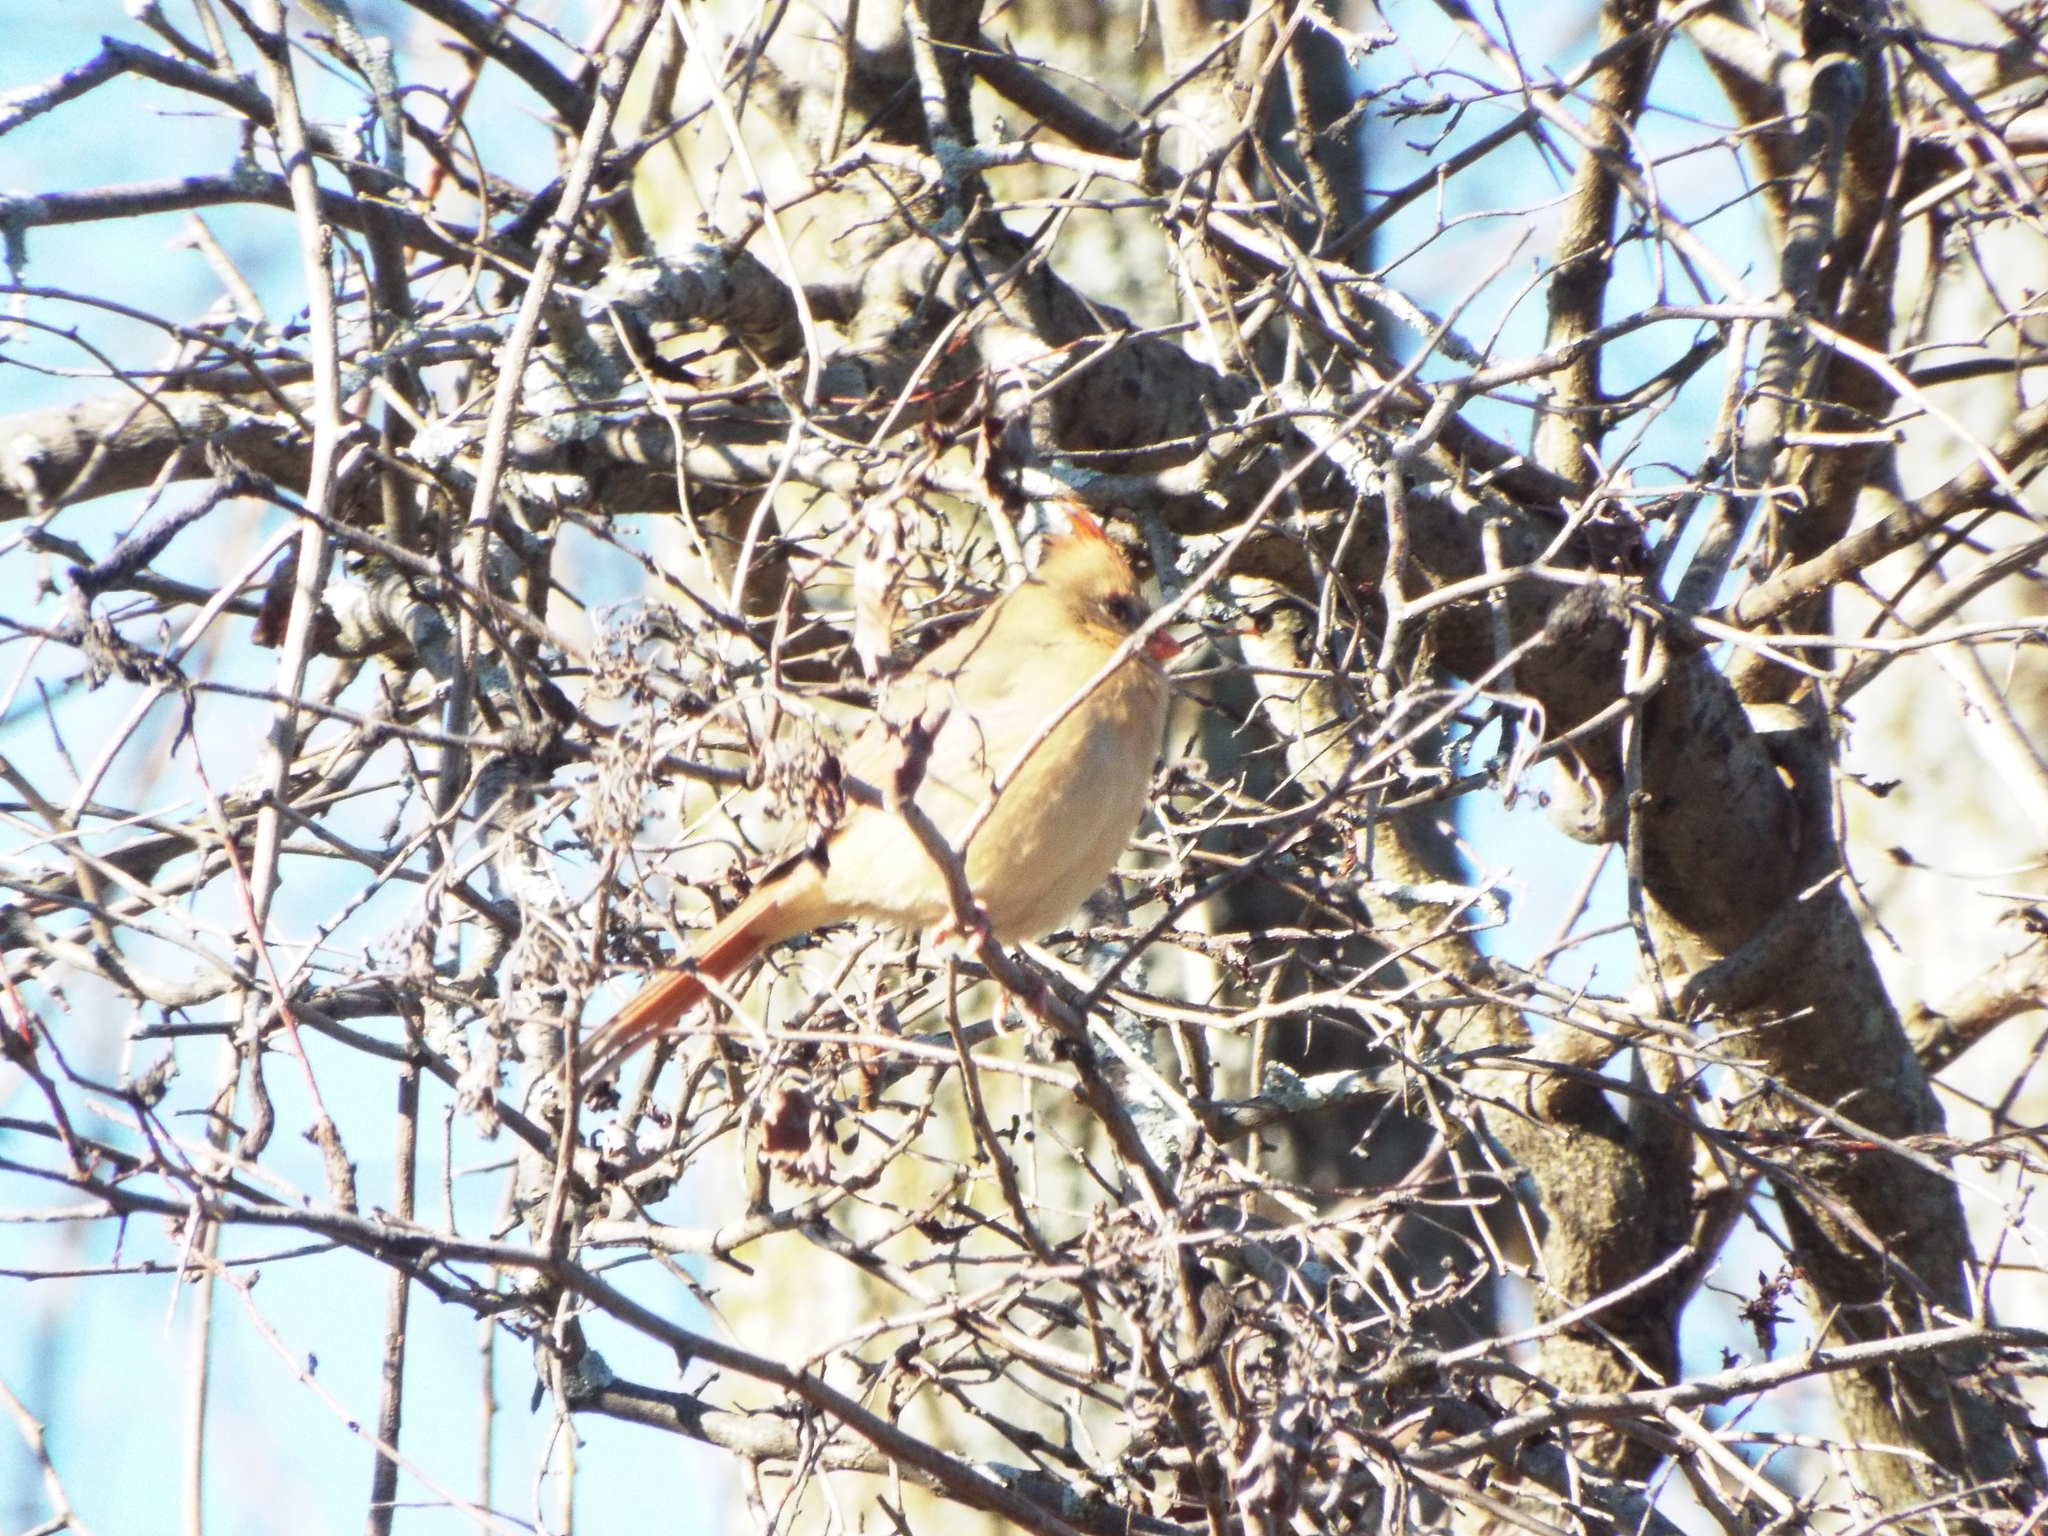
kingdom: Animalia
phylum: Chordata
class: Aves
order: Passeriformes
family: Cardinalidae
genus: Cardinalis
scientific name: Cardinalis cardinalis
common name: Northern cardinal
